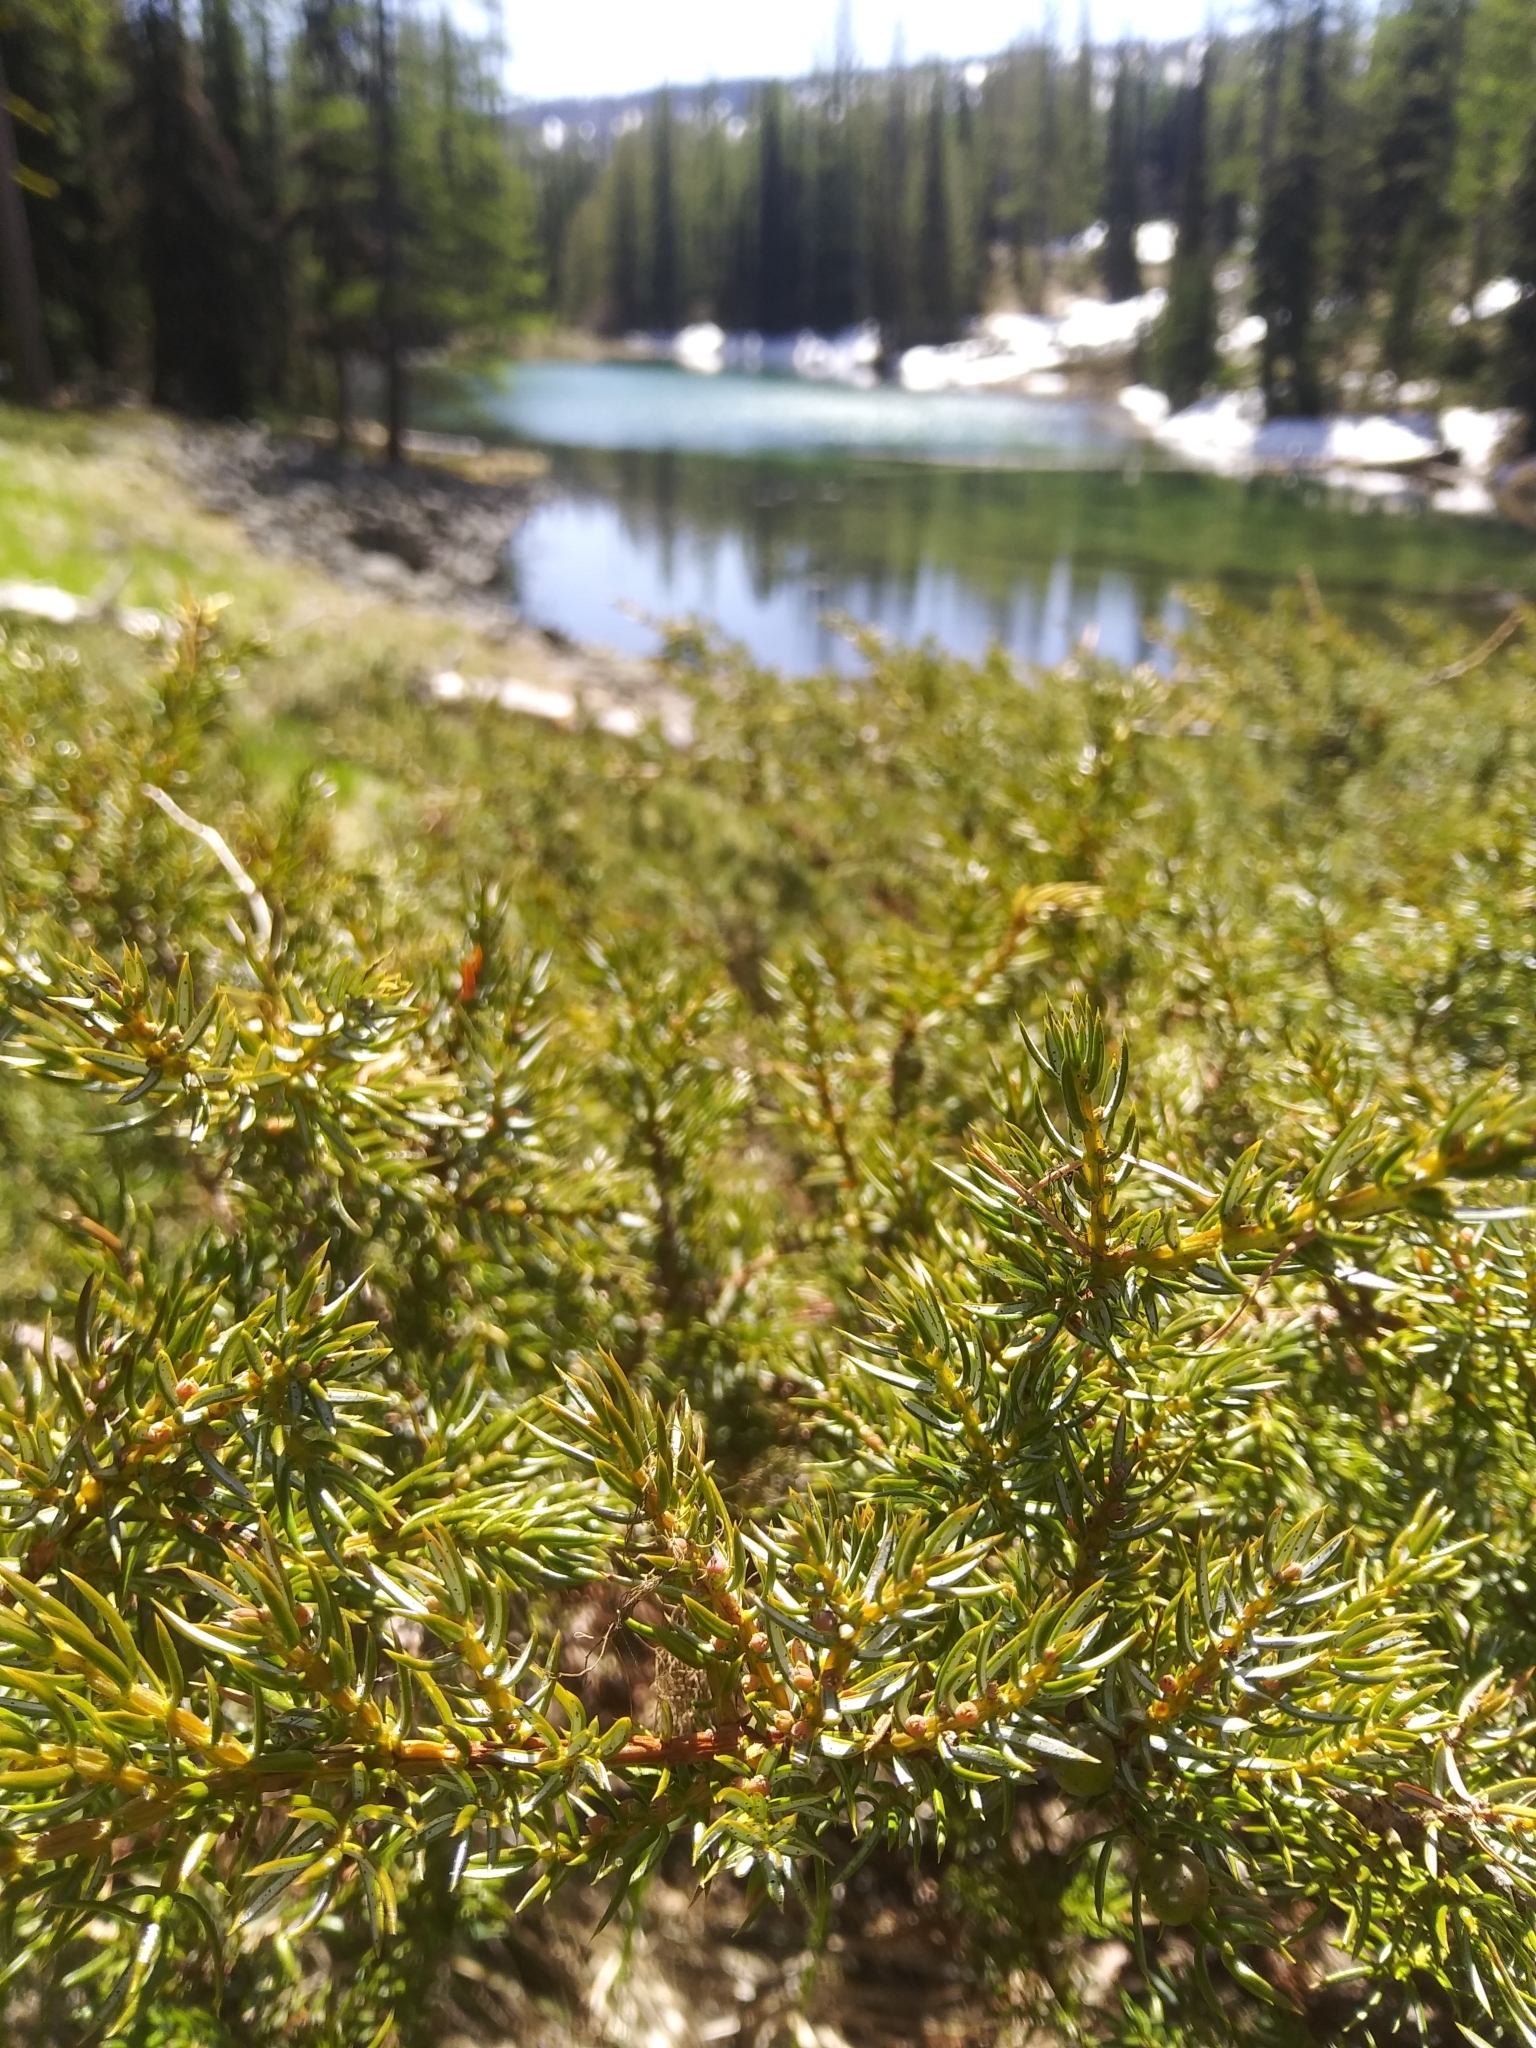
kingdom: Plantae
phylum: Tracheophyta
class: Pinopsida
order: Pinales
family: Cupressaceae
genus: Juniperus
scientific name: Juniperus communis
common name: Common juniper
